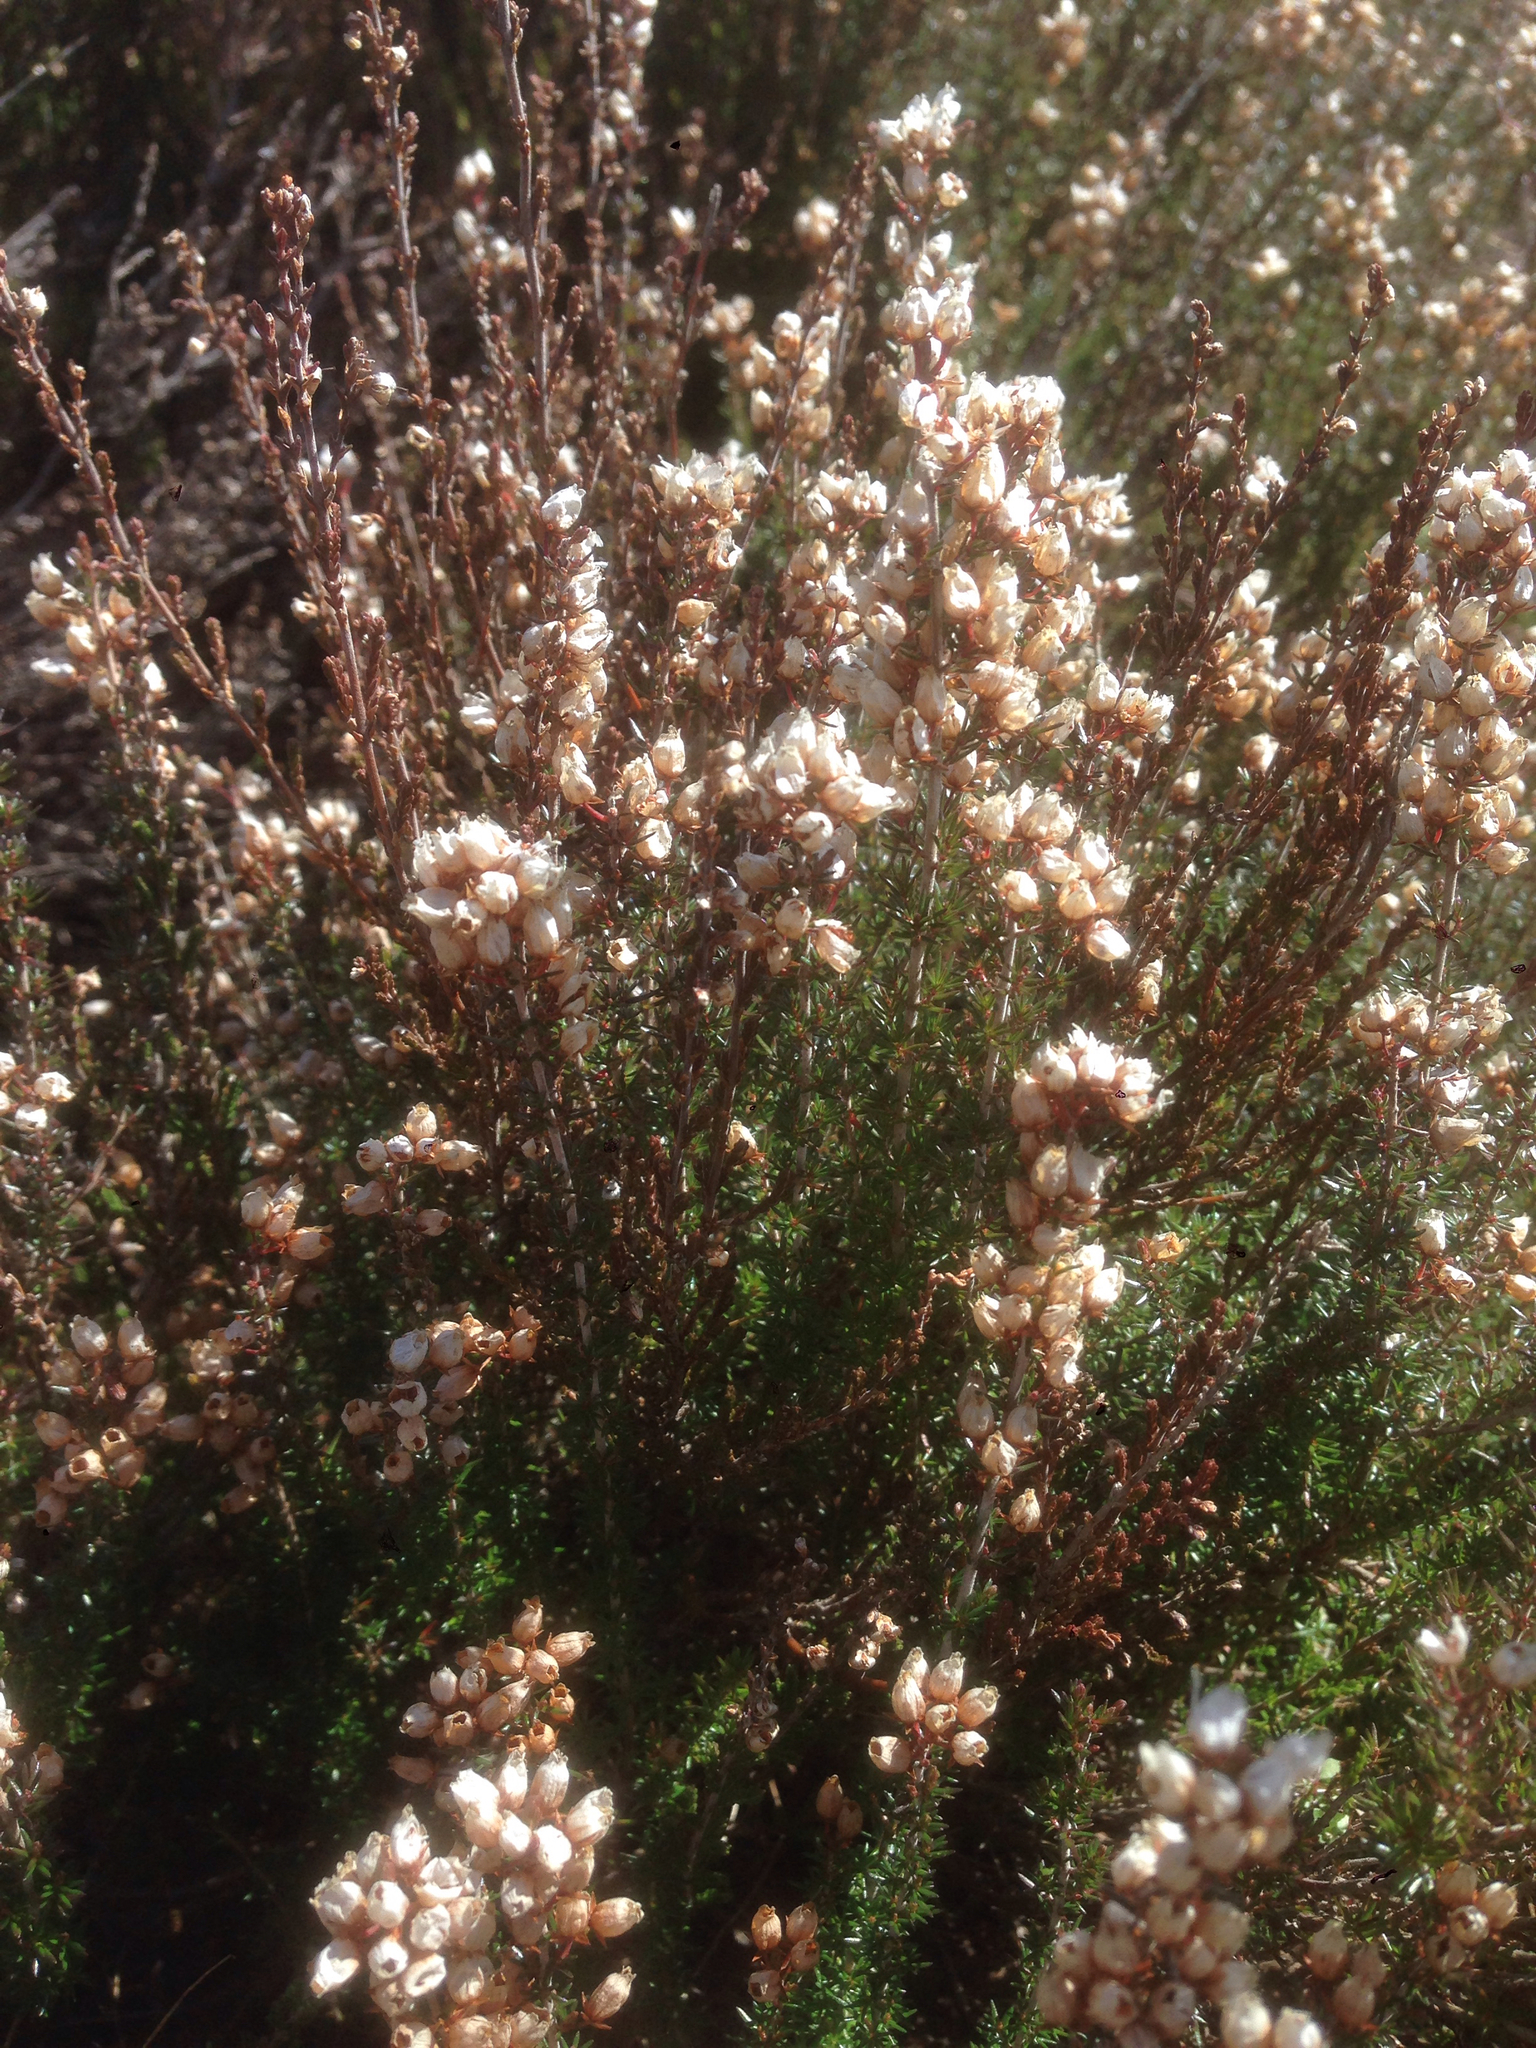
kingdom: Plantae
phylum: Tracheophyta
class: Magnoliopsida
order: Ericales
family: Ericaceae
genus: Erica
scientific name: Erica cinerea
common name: Bell heather
